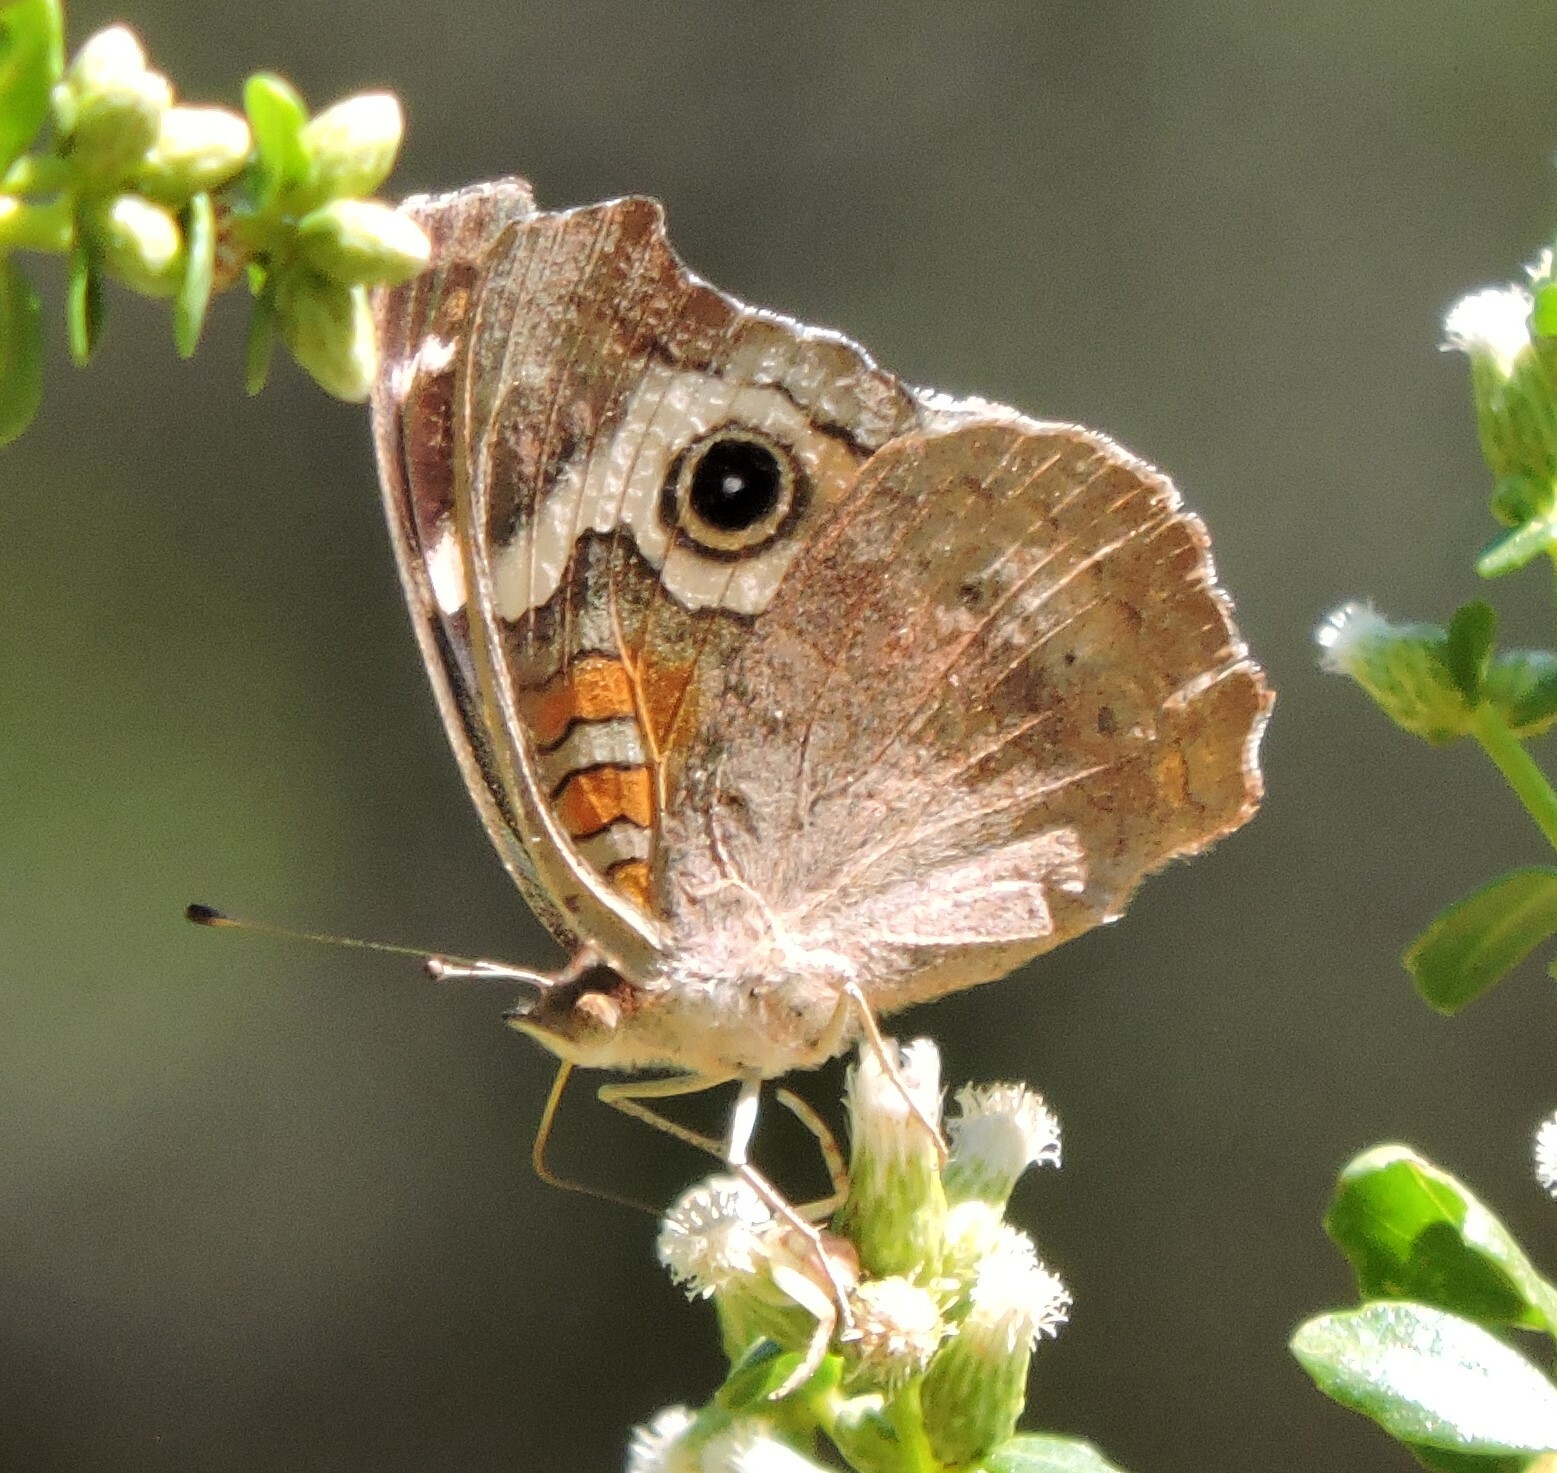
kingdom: Animalia
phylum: Arthropoda
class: Insecta
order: Lepidoptera
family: Nymphalidae
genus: Junonia
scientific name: Junonia grisea
